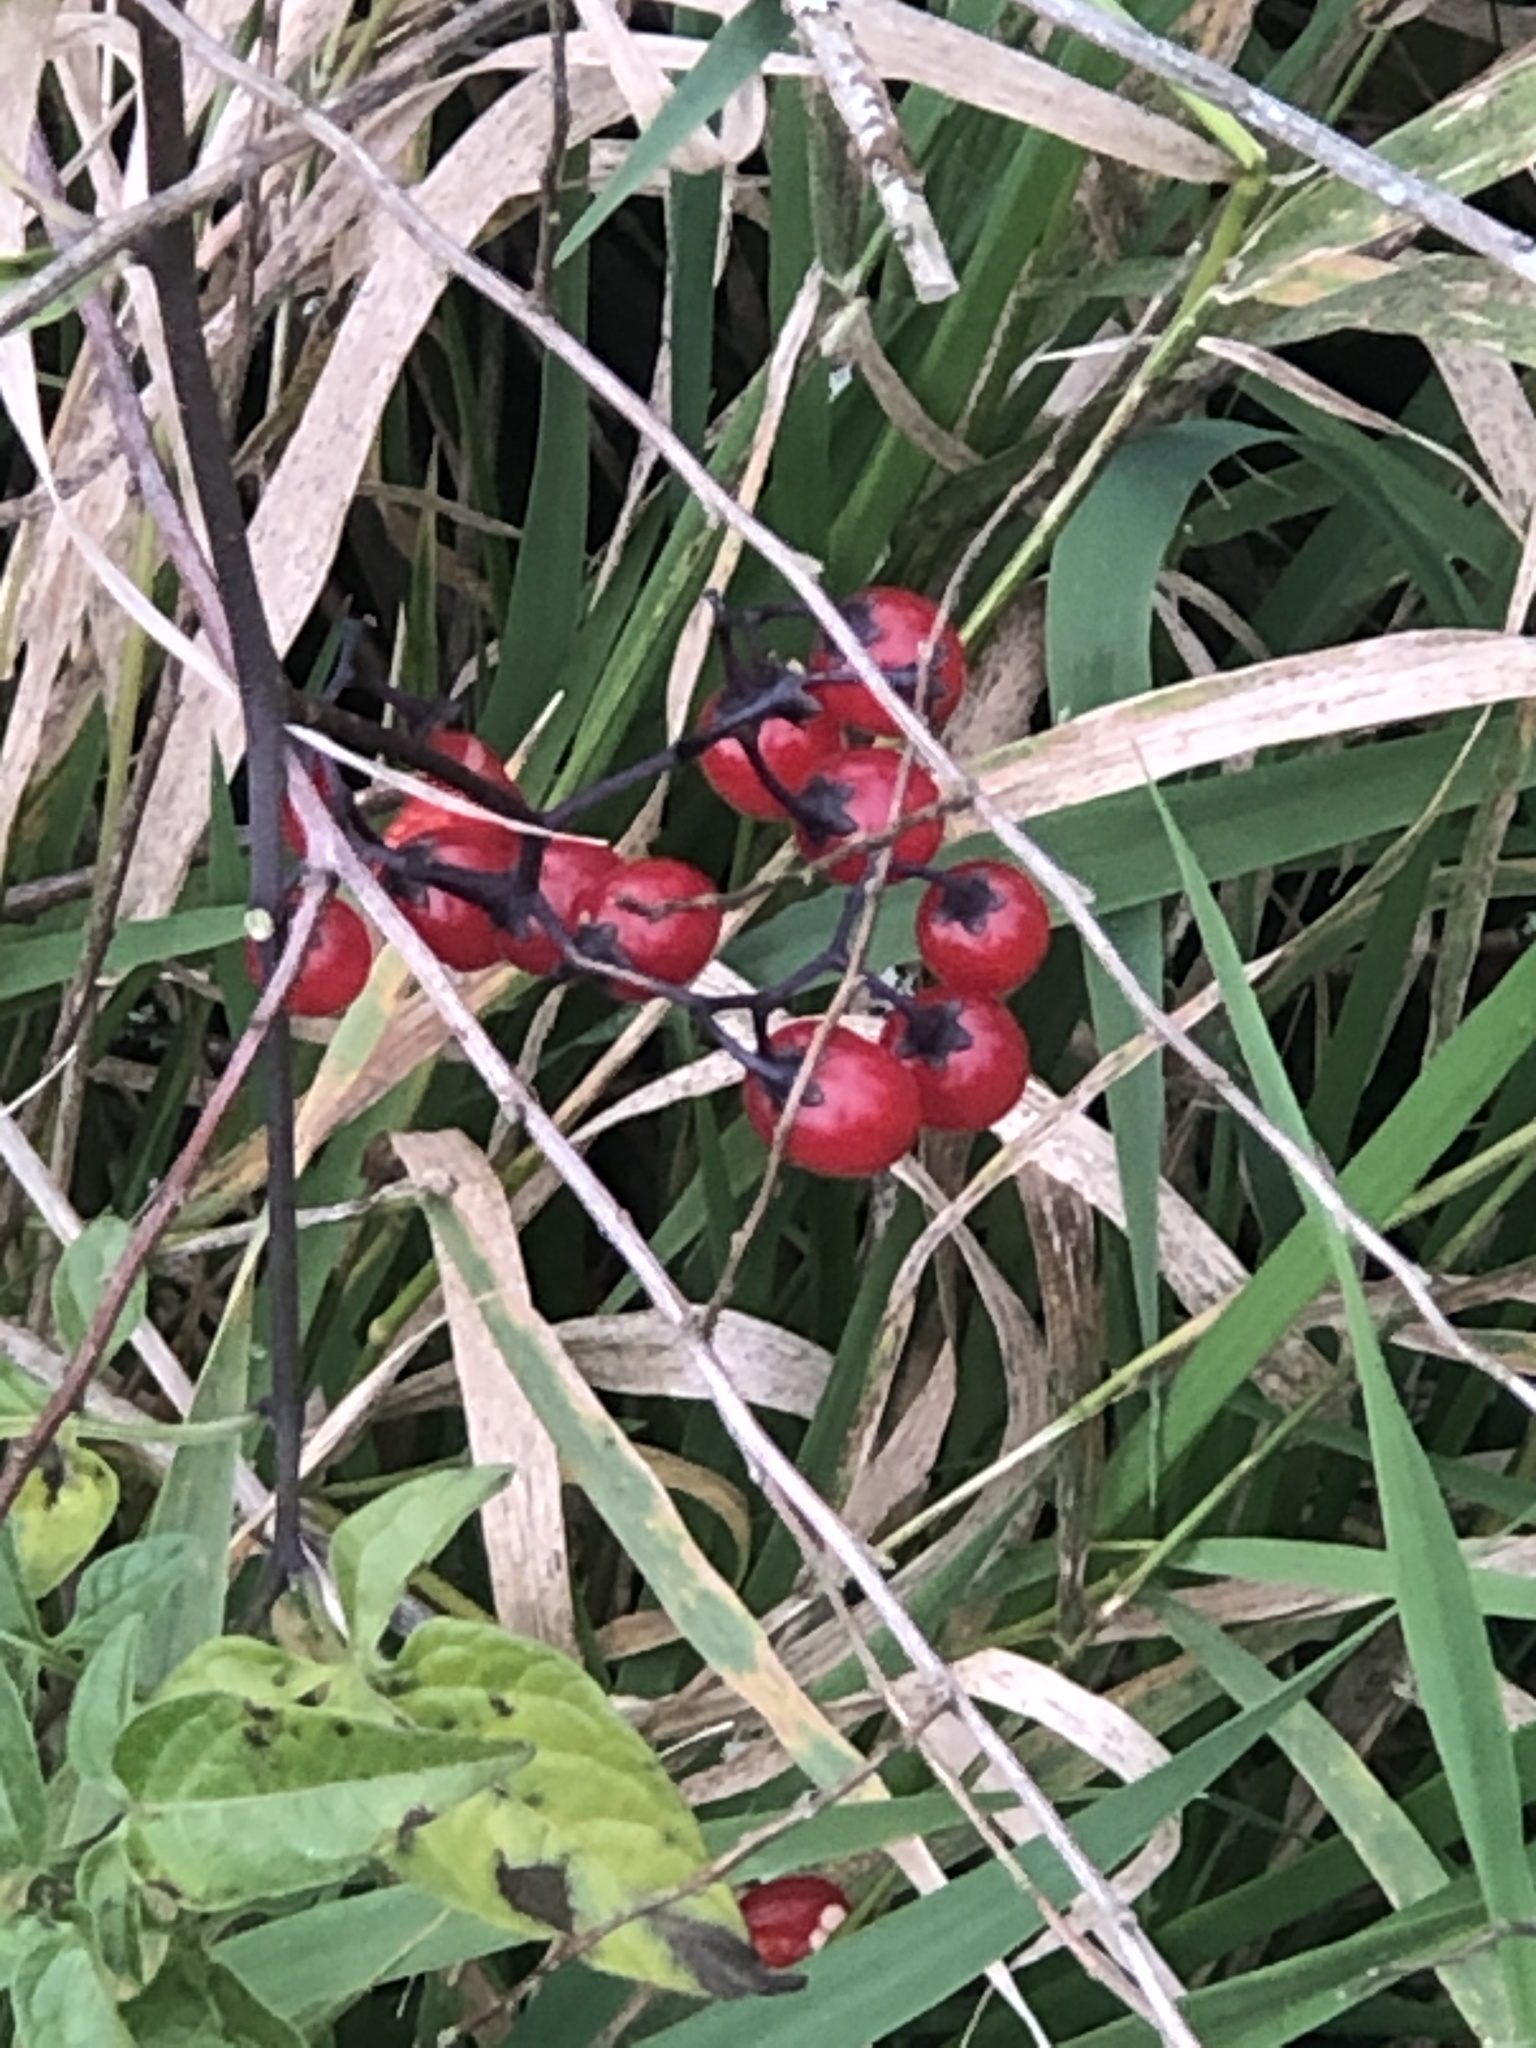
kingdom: Plantae
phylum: Tracheophyta
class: Magnoliopsida
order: Solanales
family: Solanaceae
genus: Solanum
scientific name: Solanum dulcamara
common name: Climbing nightshade
